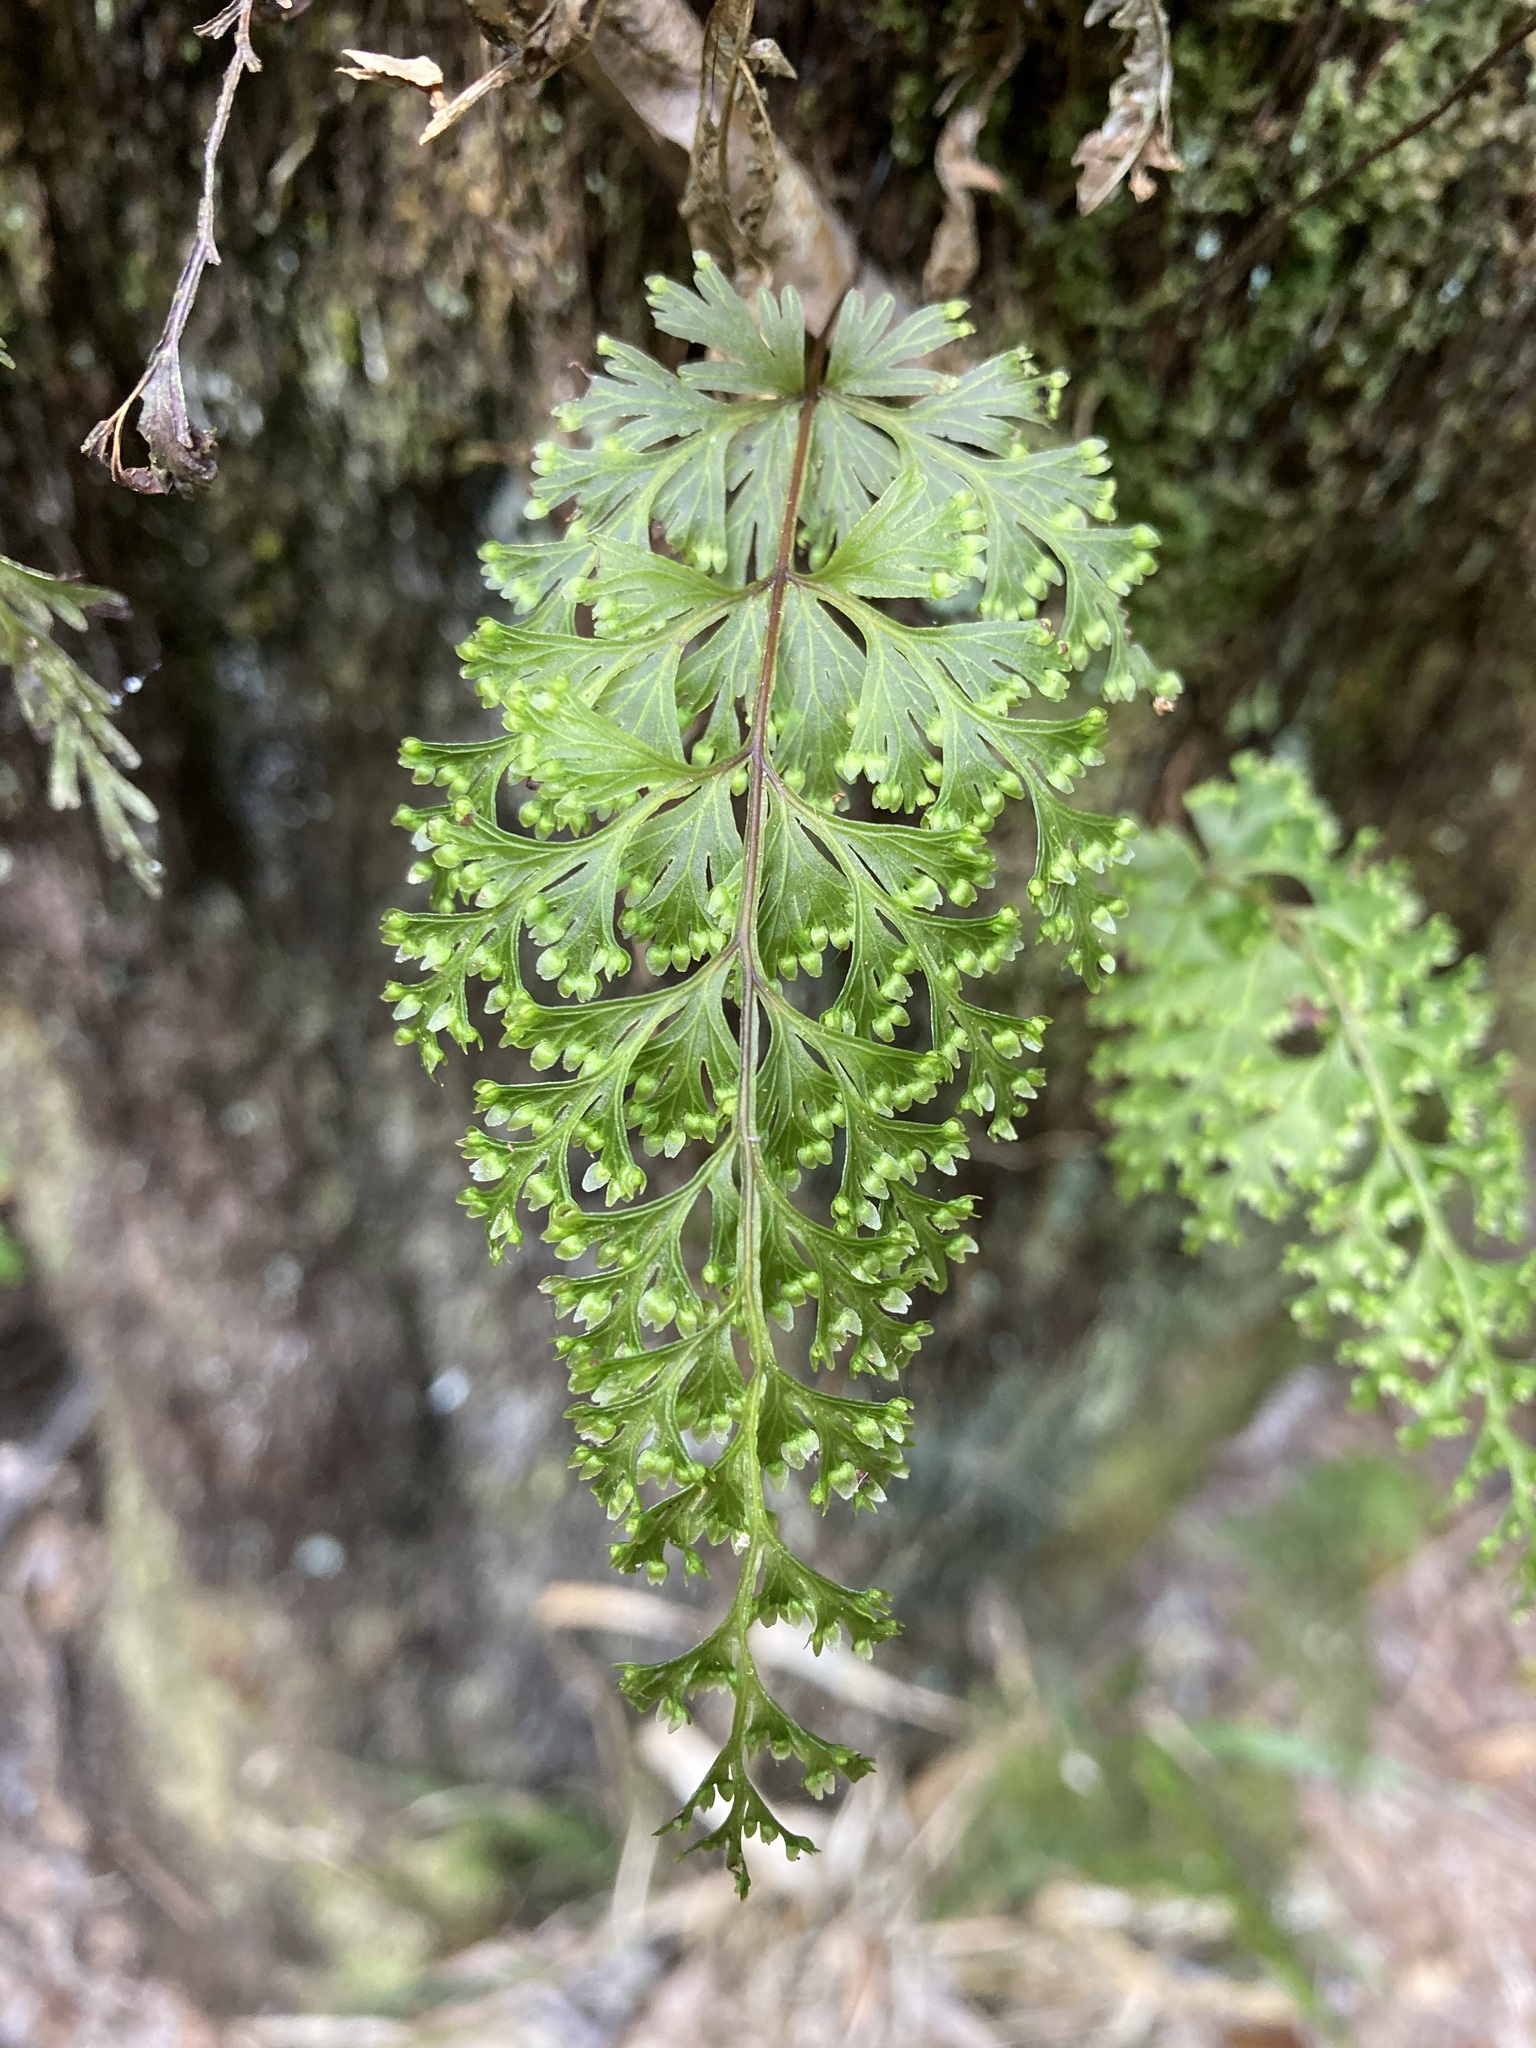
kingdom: Plantae
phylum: Tracheophyta
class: Polypodiopsida
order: Hymenophyllales
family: Hymenophyllaceae
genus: Hymenophyllum
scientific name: Hymenophyllum demissum
